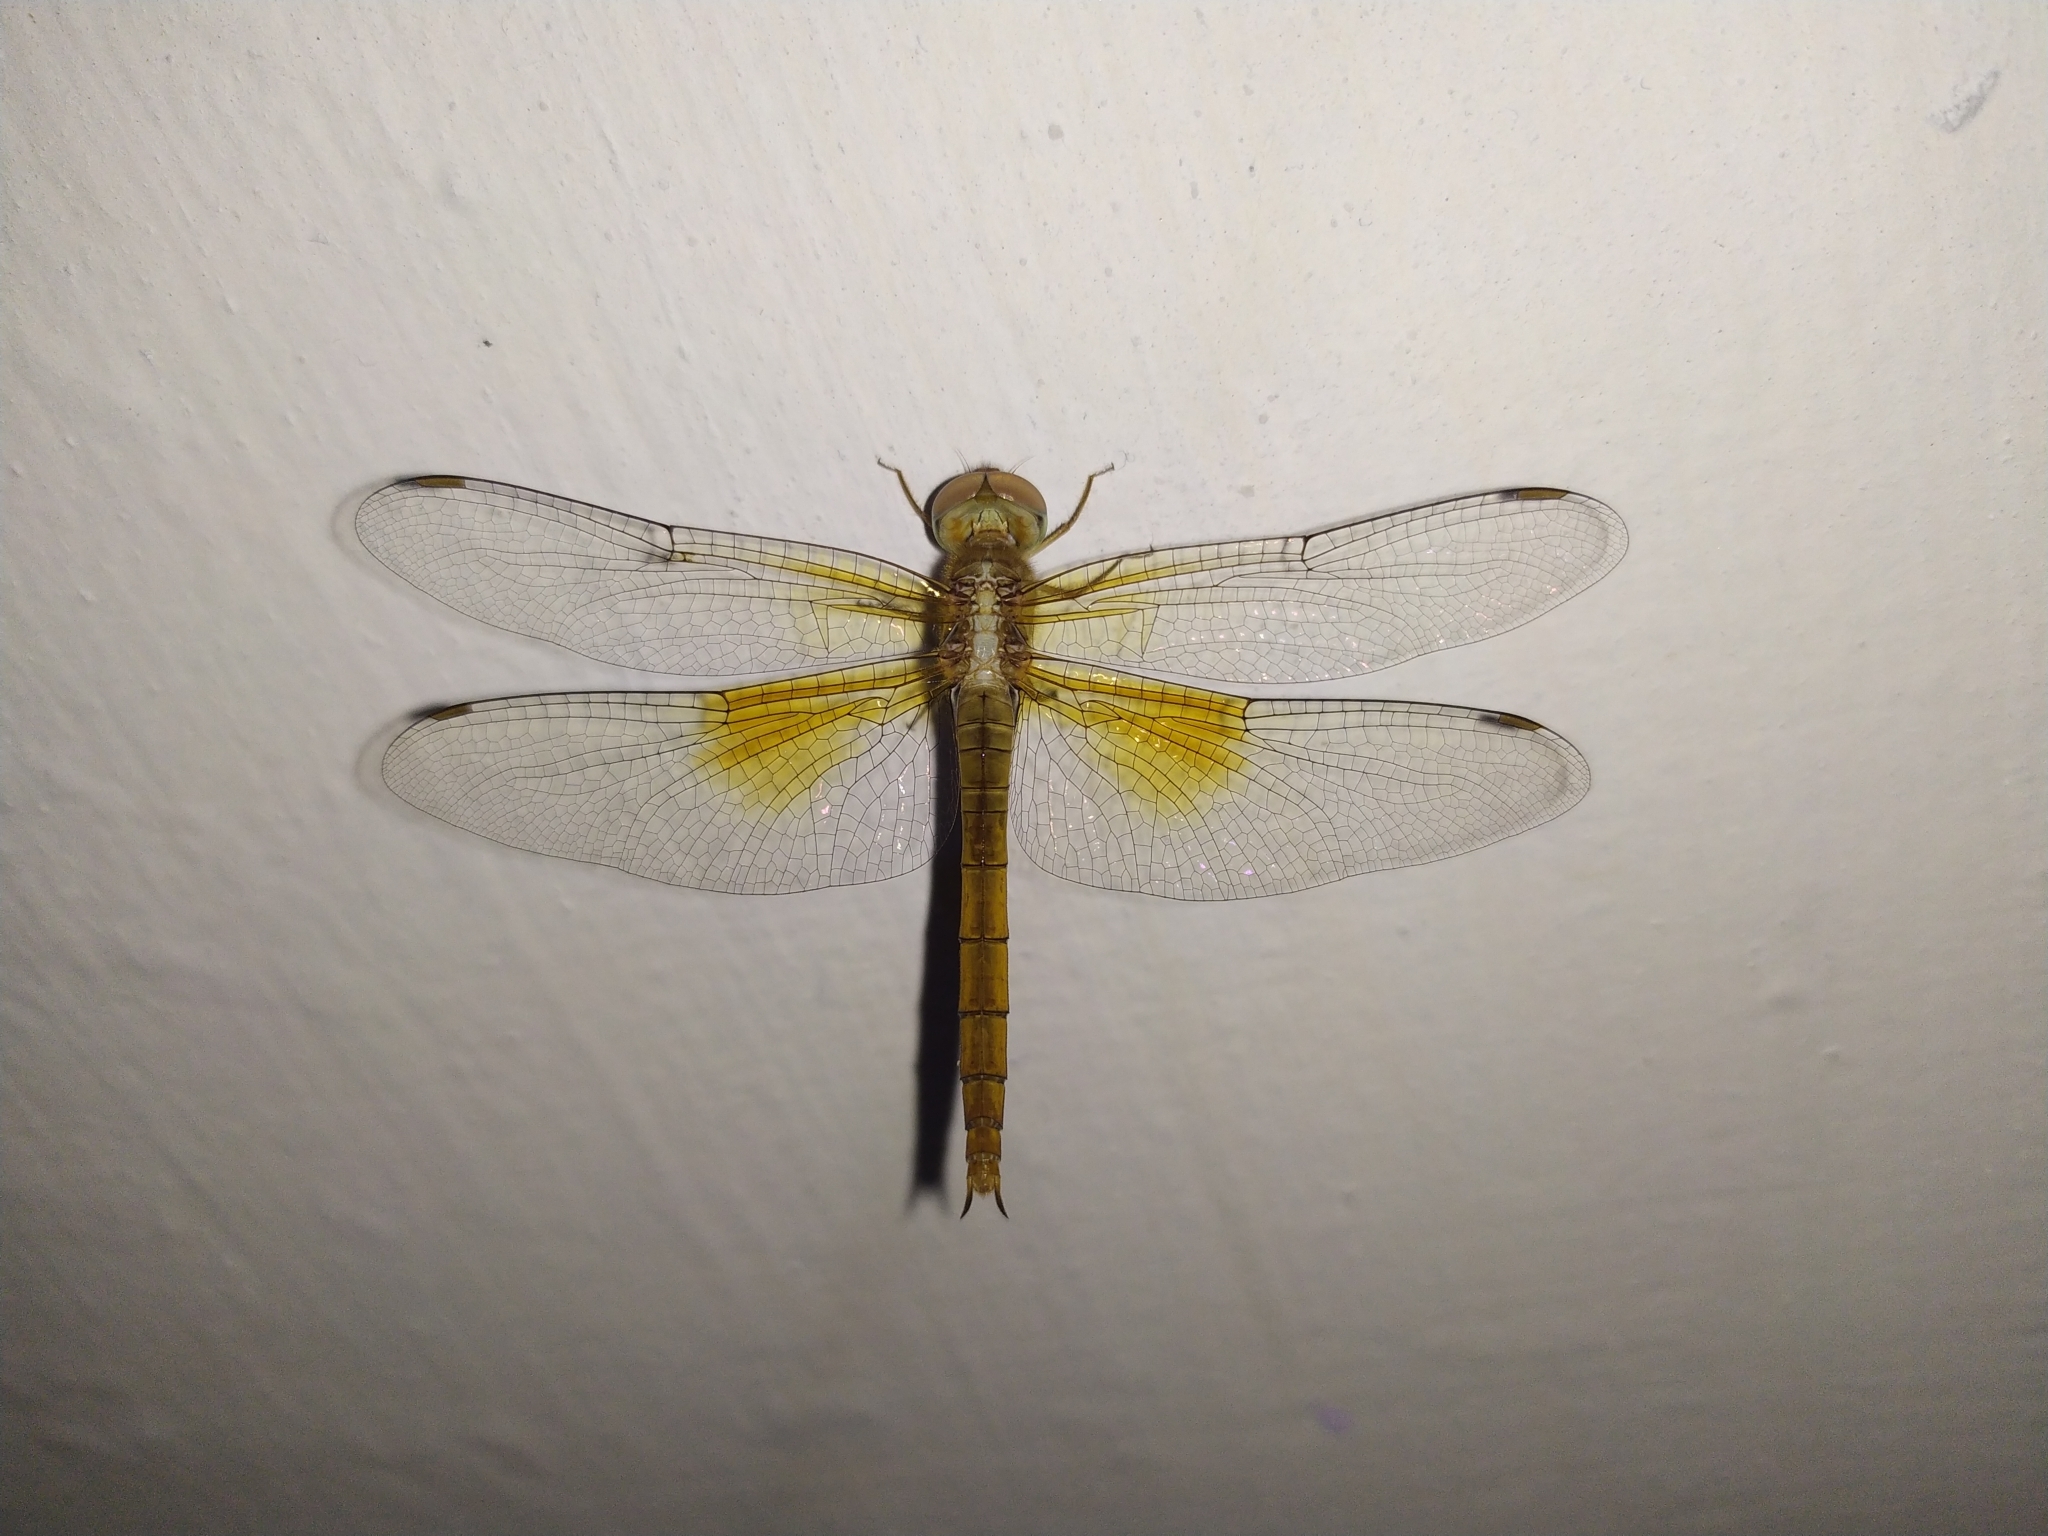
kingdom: Animalia
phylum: Arthropoda
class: Insecta
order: Odonata
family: Libellulidae
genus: Tholymis
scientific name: Tholymis tillarga
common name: Coral-tailed cloud wing
